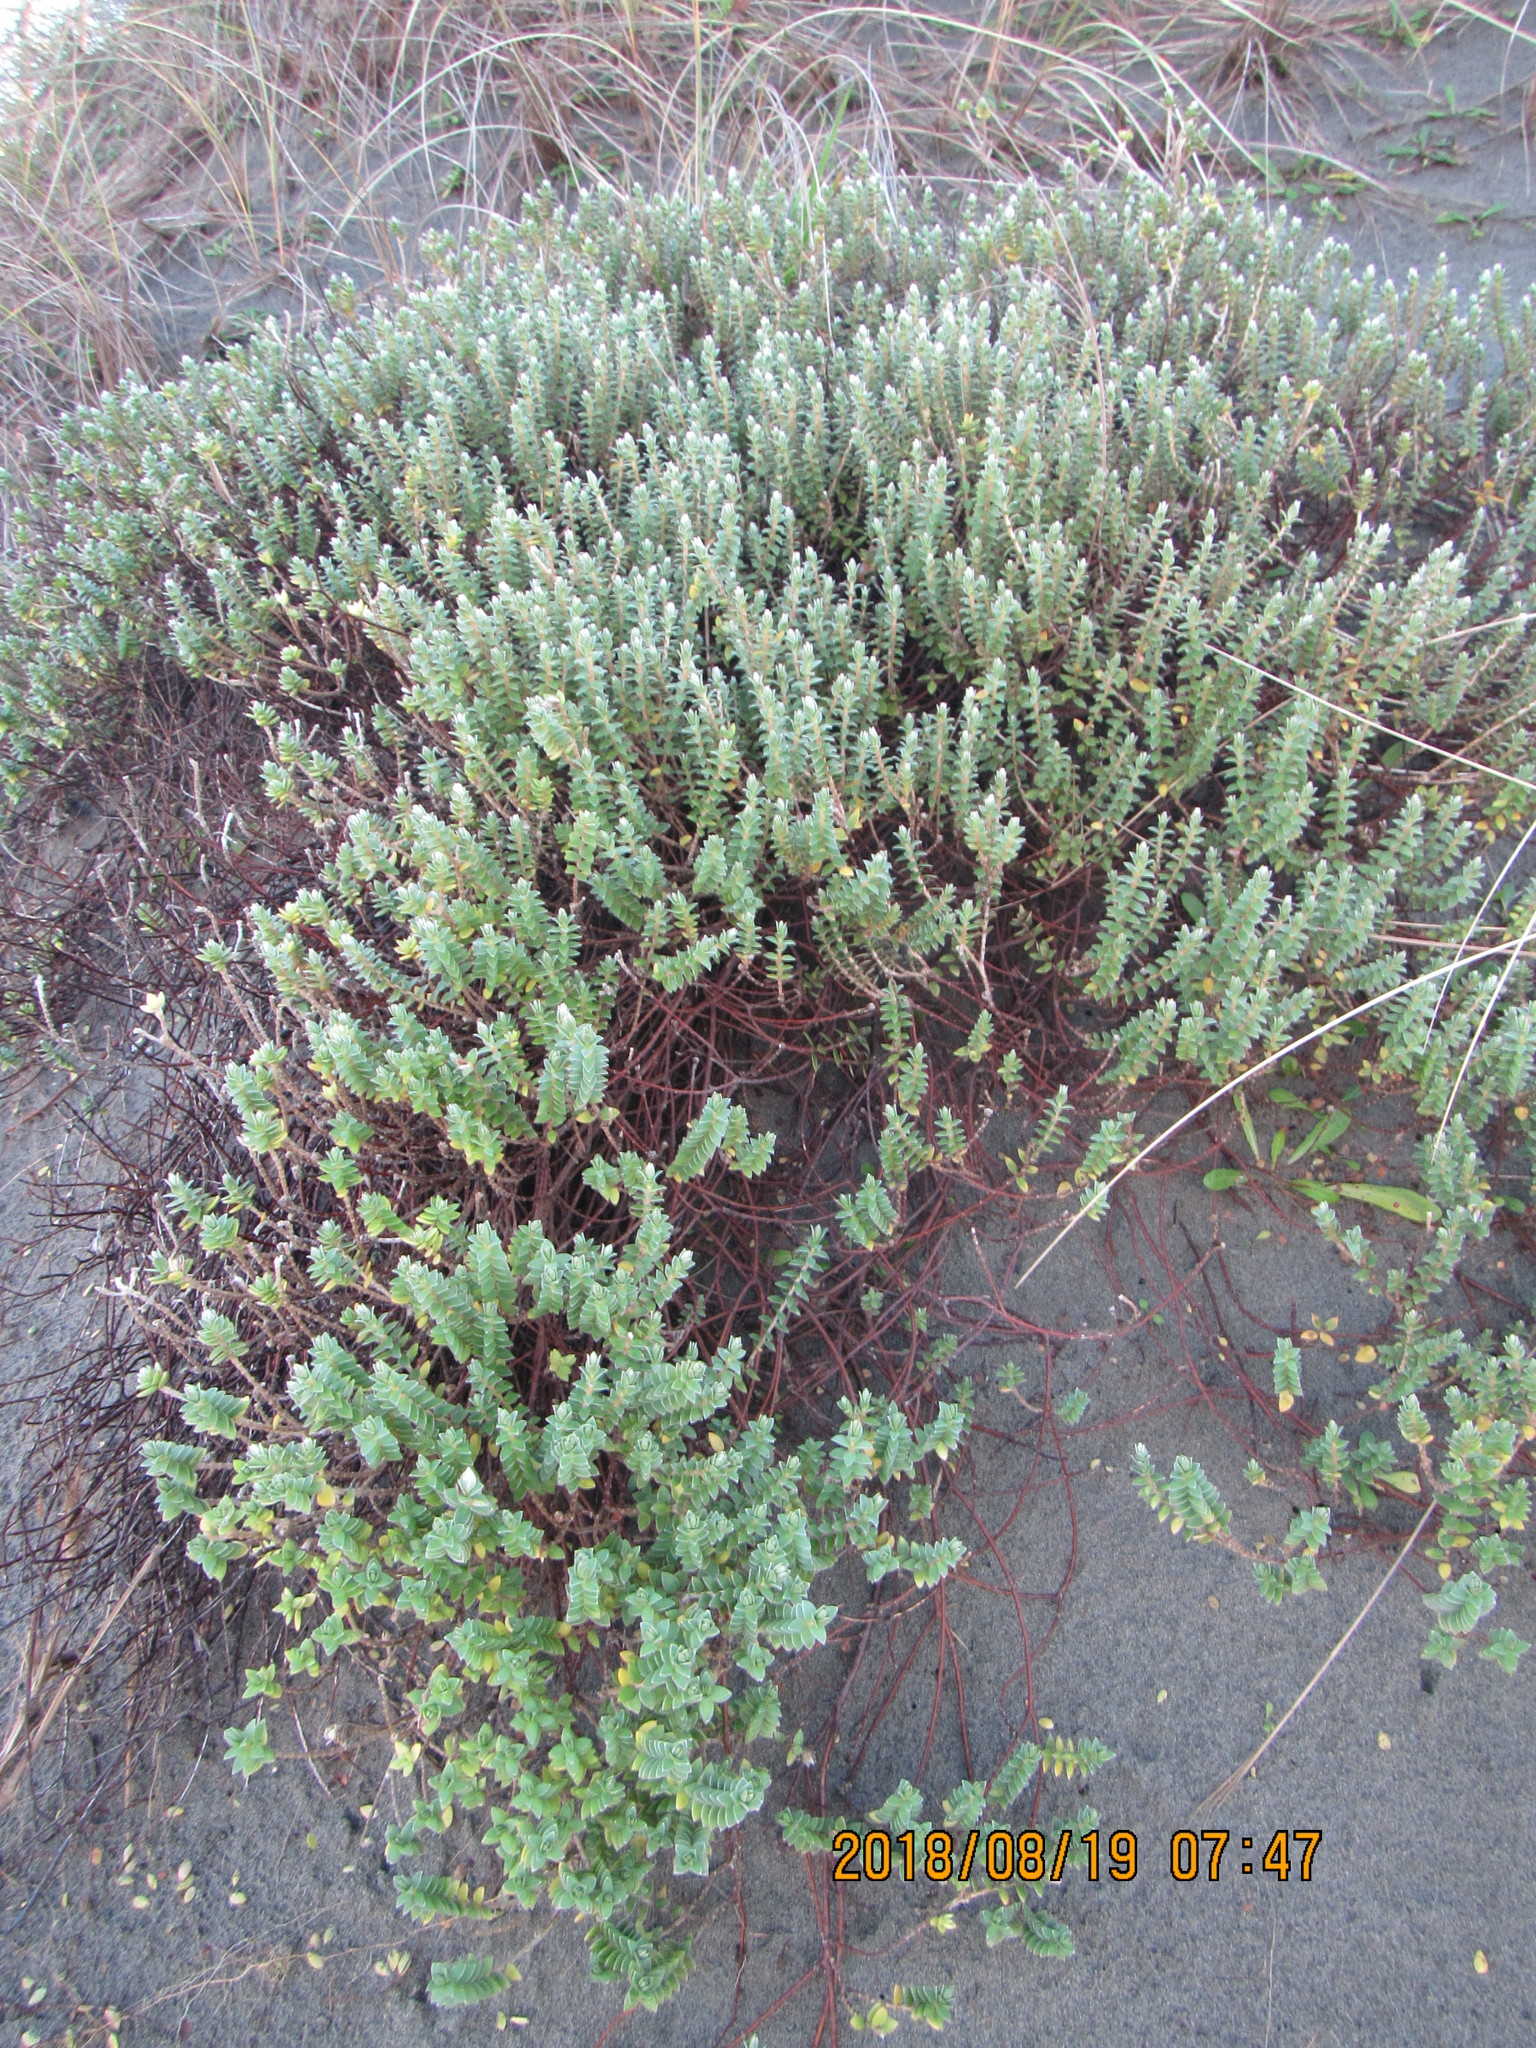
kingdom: Plantae
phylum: Tracheophyta
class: Magnoliopsida
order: Malvales
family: Thymelaeaceae
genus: Pimelea
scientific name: Pimelea villosa
